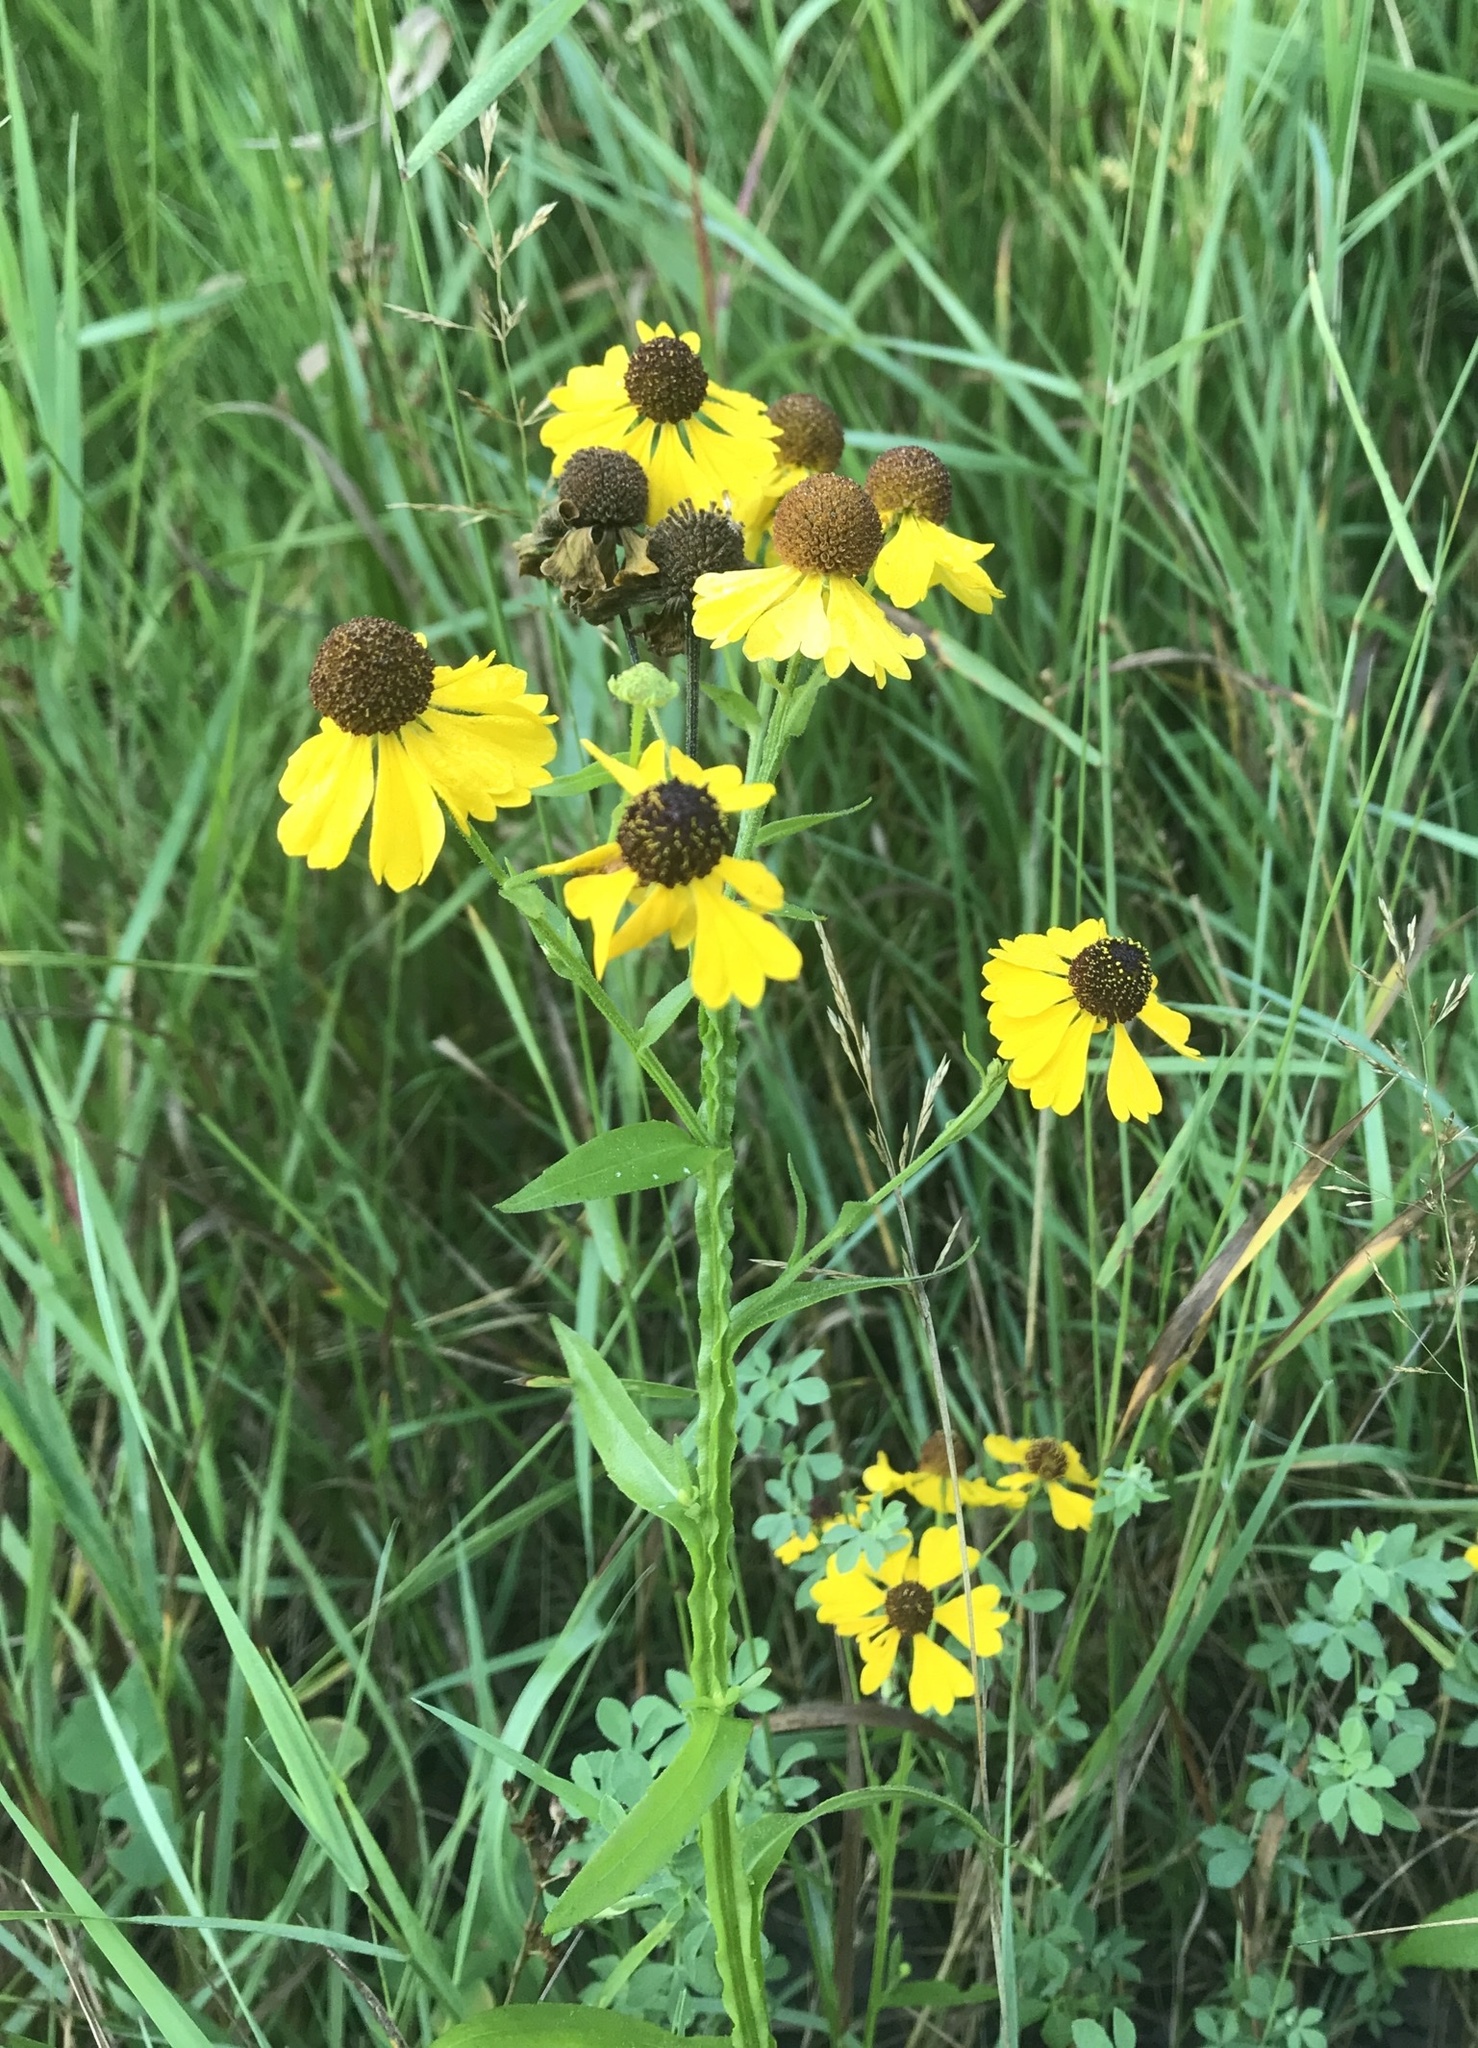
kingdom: Plantae
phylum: Tracheophyta
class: Magnoliopsida
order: Asterales
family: Asteraceae
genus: Helenium
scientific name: Helenium flexuosum
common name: Naked-flowered sneezeweed
